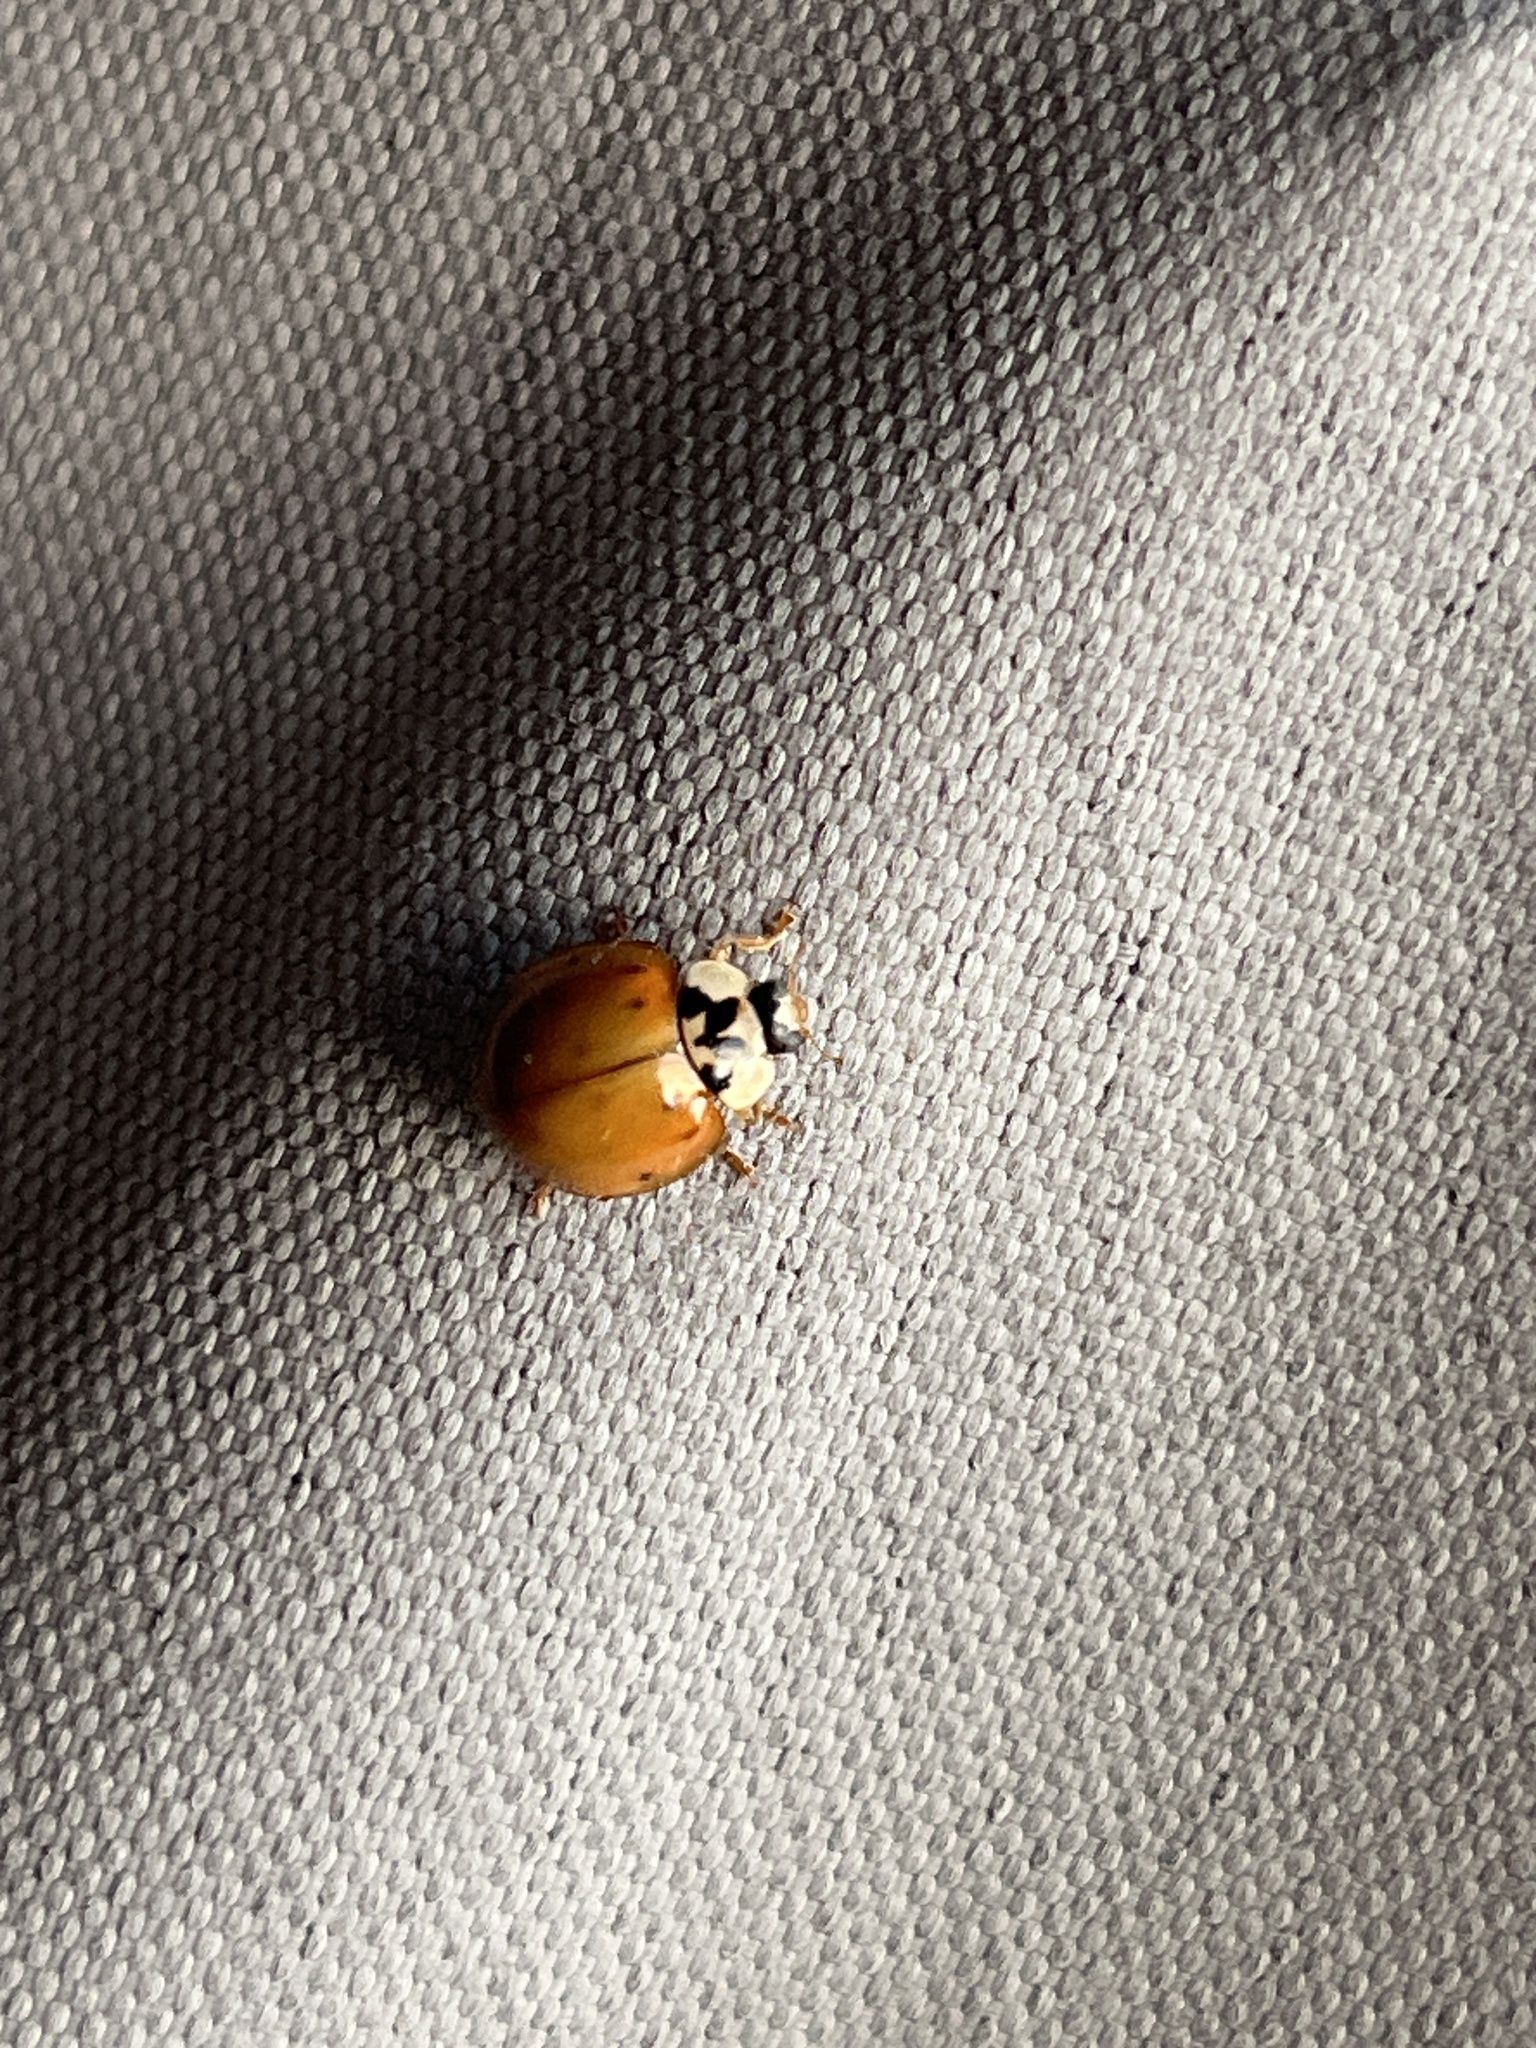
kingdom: Animalia
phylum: Arthropoda
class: Insecta
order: Coleoptera
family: Coccinellidae
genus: Harmonia
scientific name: Harmonia axyridis
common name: Harlequin ladybird
